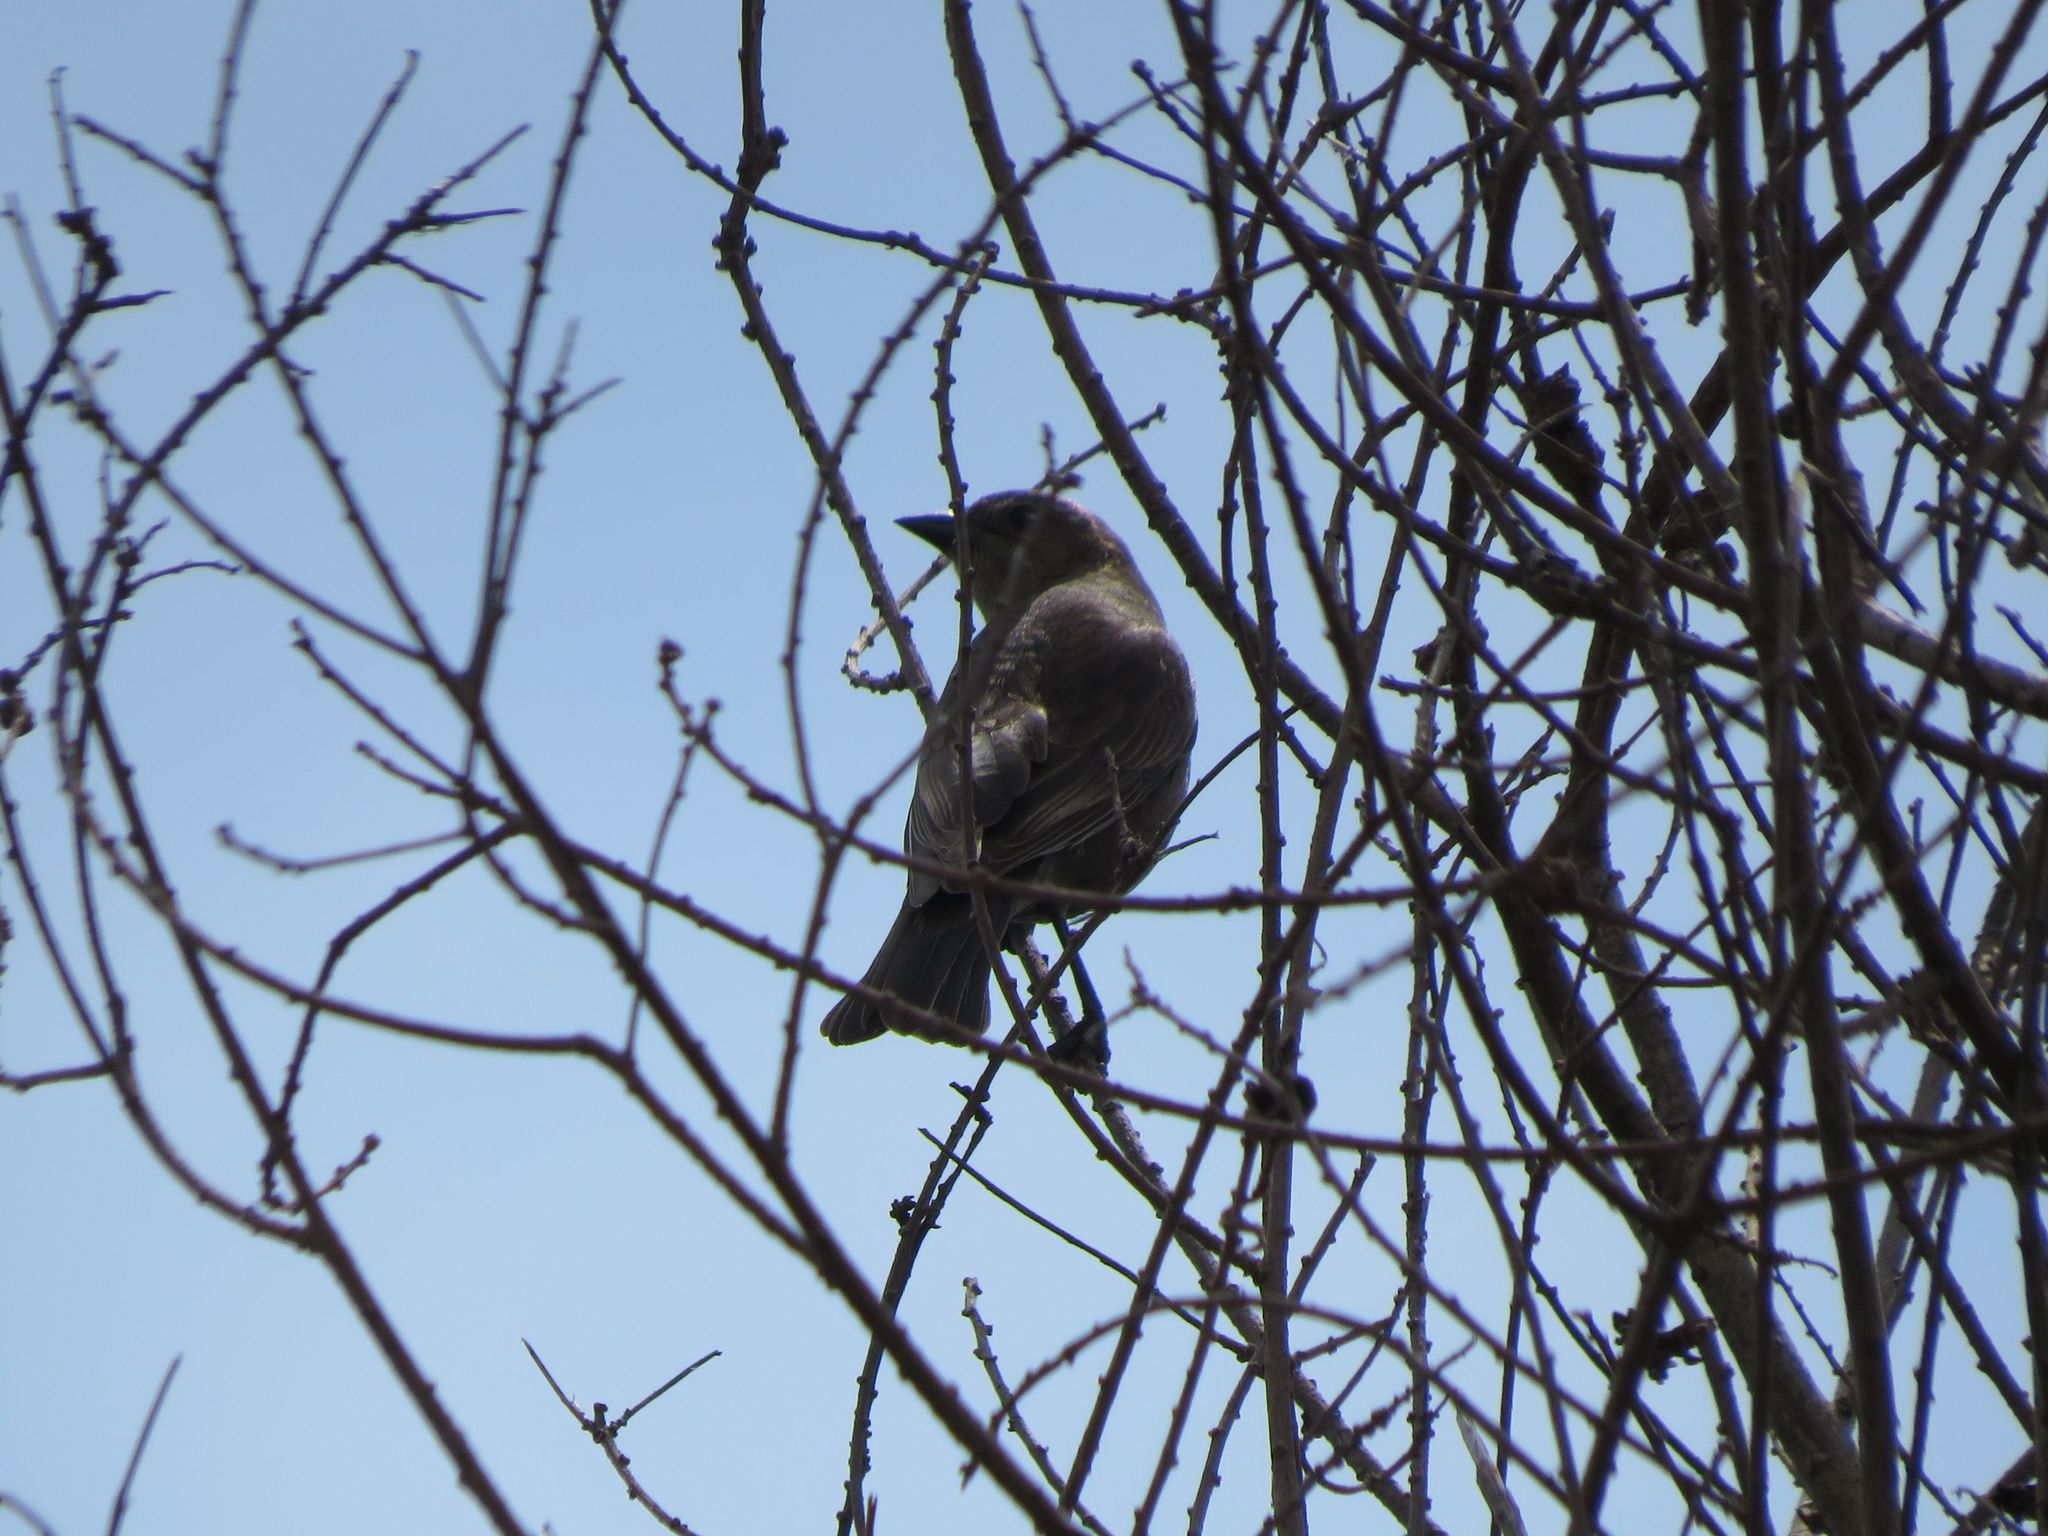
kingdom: Animalia
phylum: Chordata
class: Aves
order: Passeriformes
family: Icteridae
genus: Molothrus
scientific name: Molothrus bonariensis
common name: Shiny cowbird
